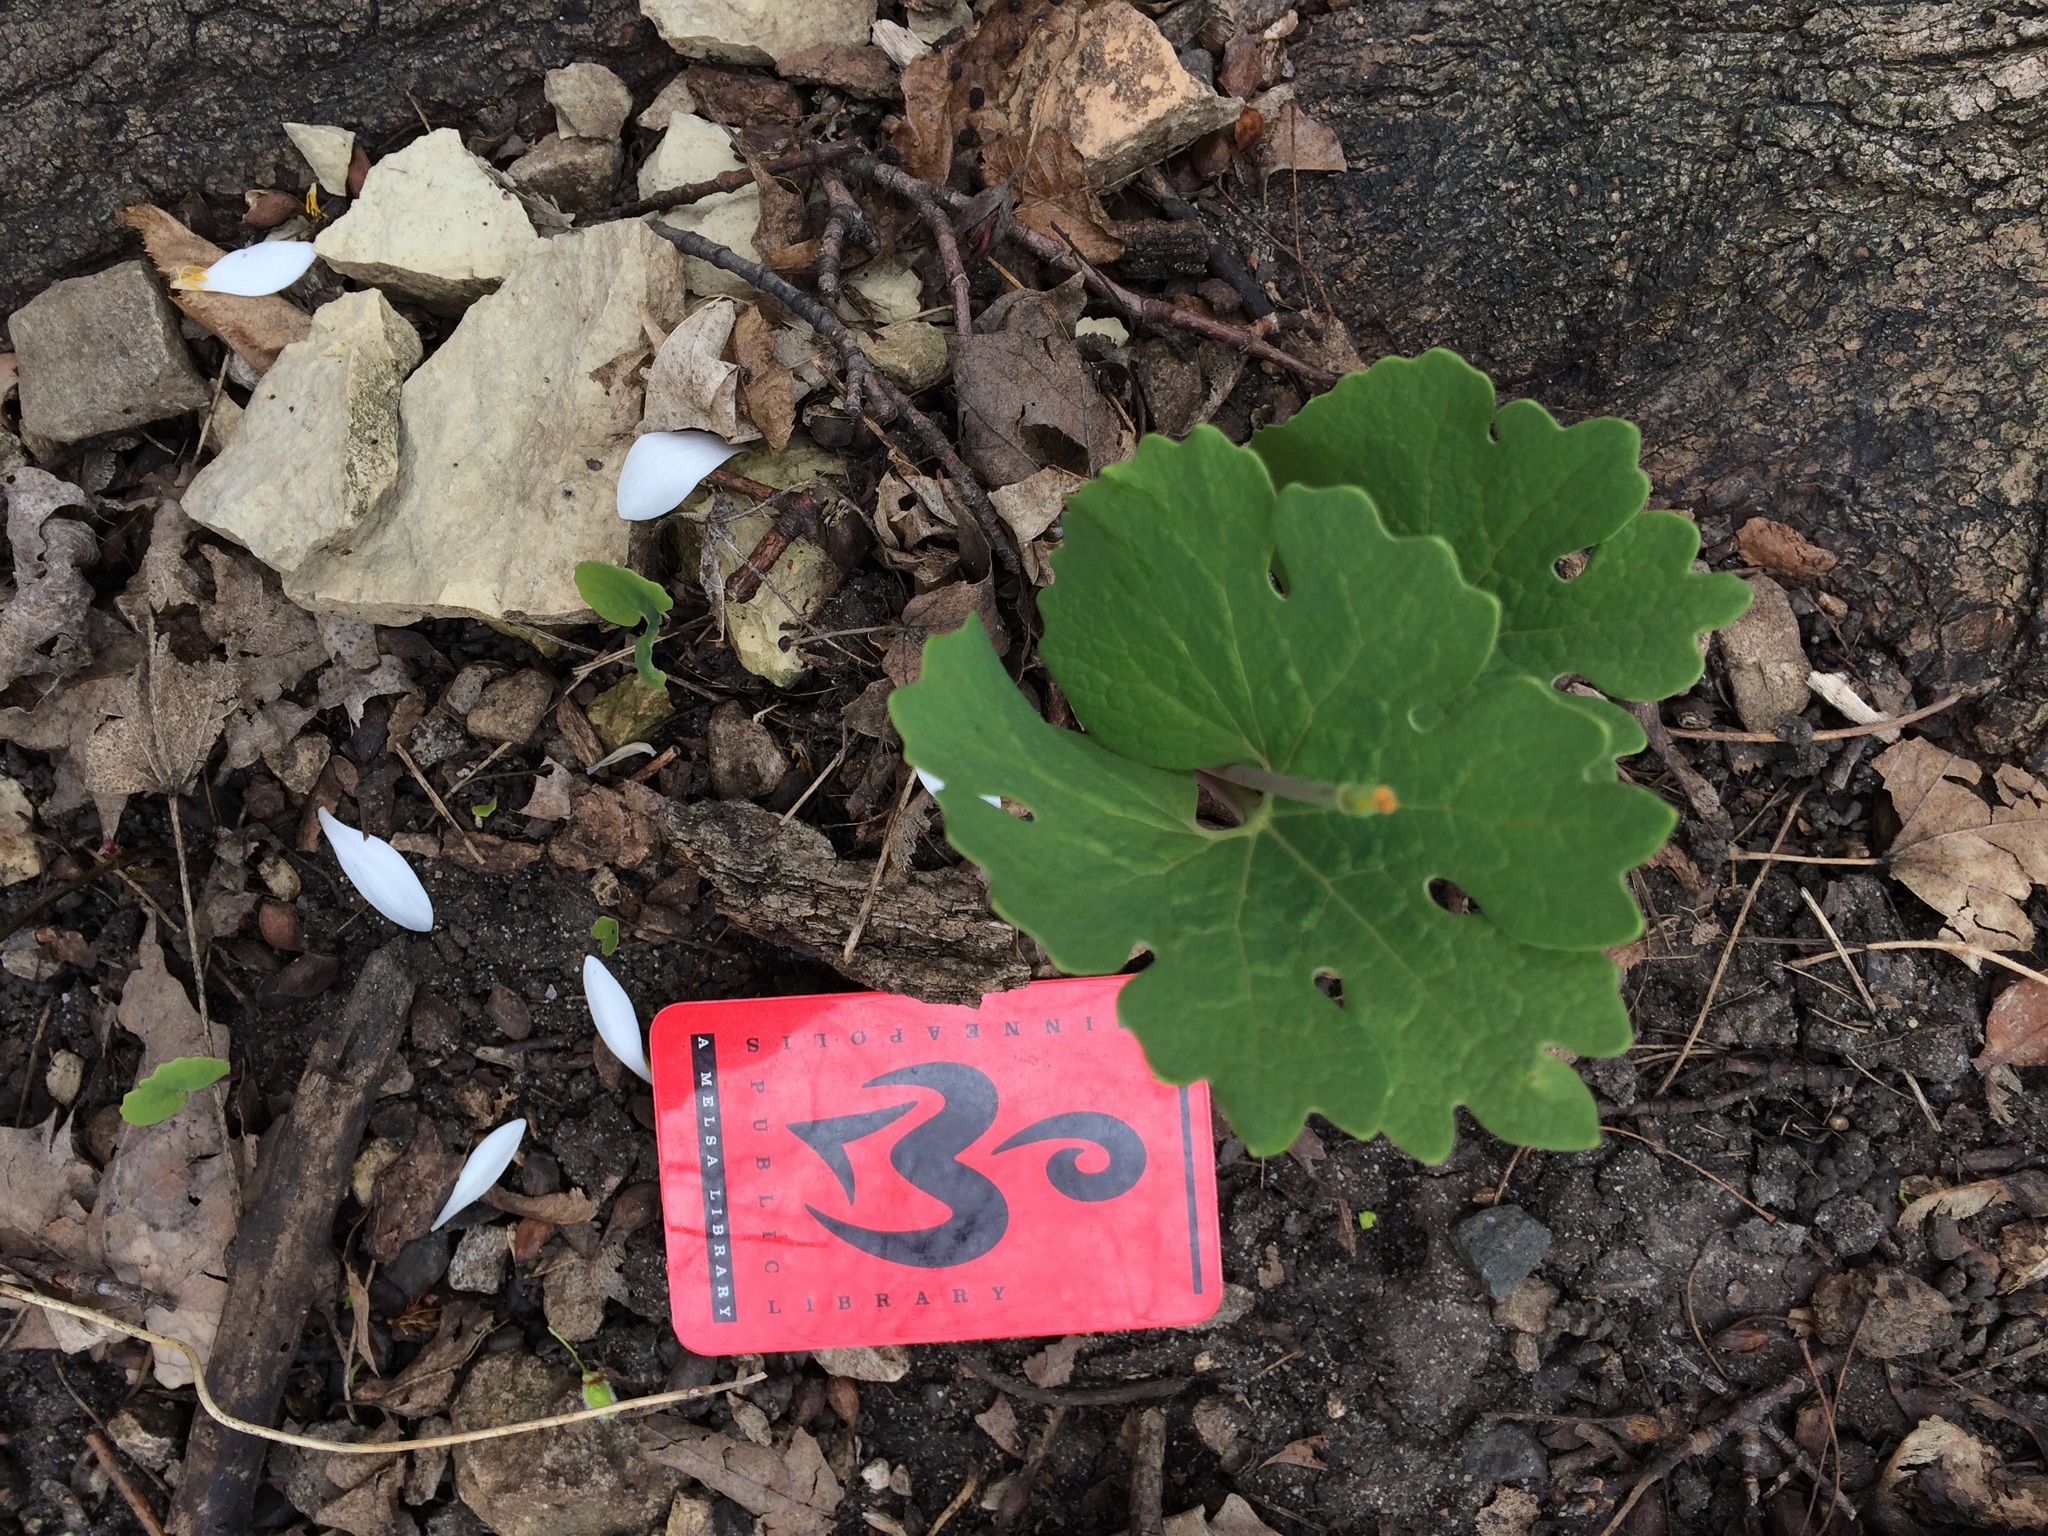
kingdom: Plantae
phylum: Tracheophyta
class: Magnoliopsida
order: Ranunculales
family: Papaveraceae
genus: Sanguinaria
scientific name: Sanguinaria canadensis
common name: Bloodroot
